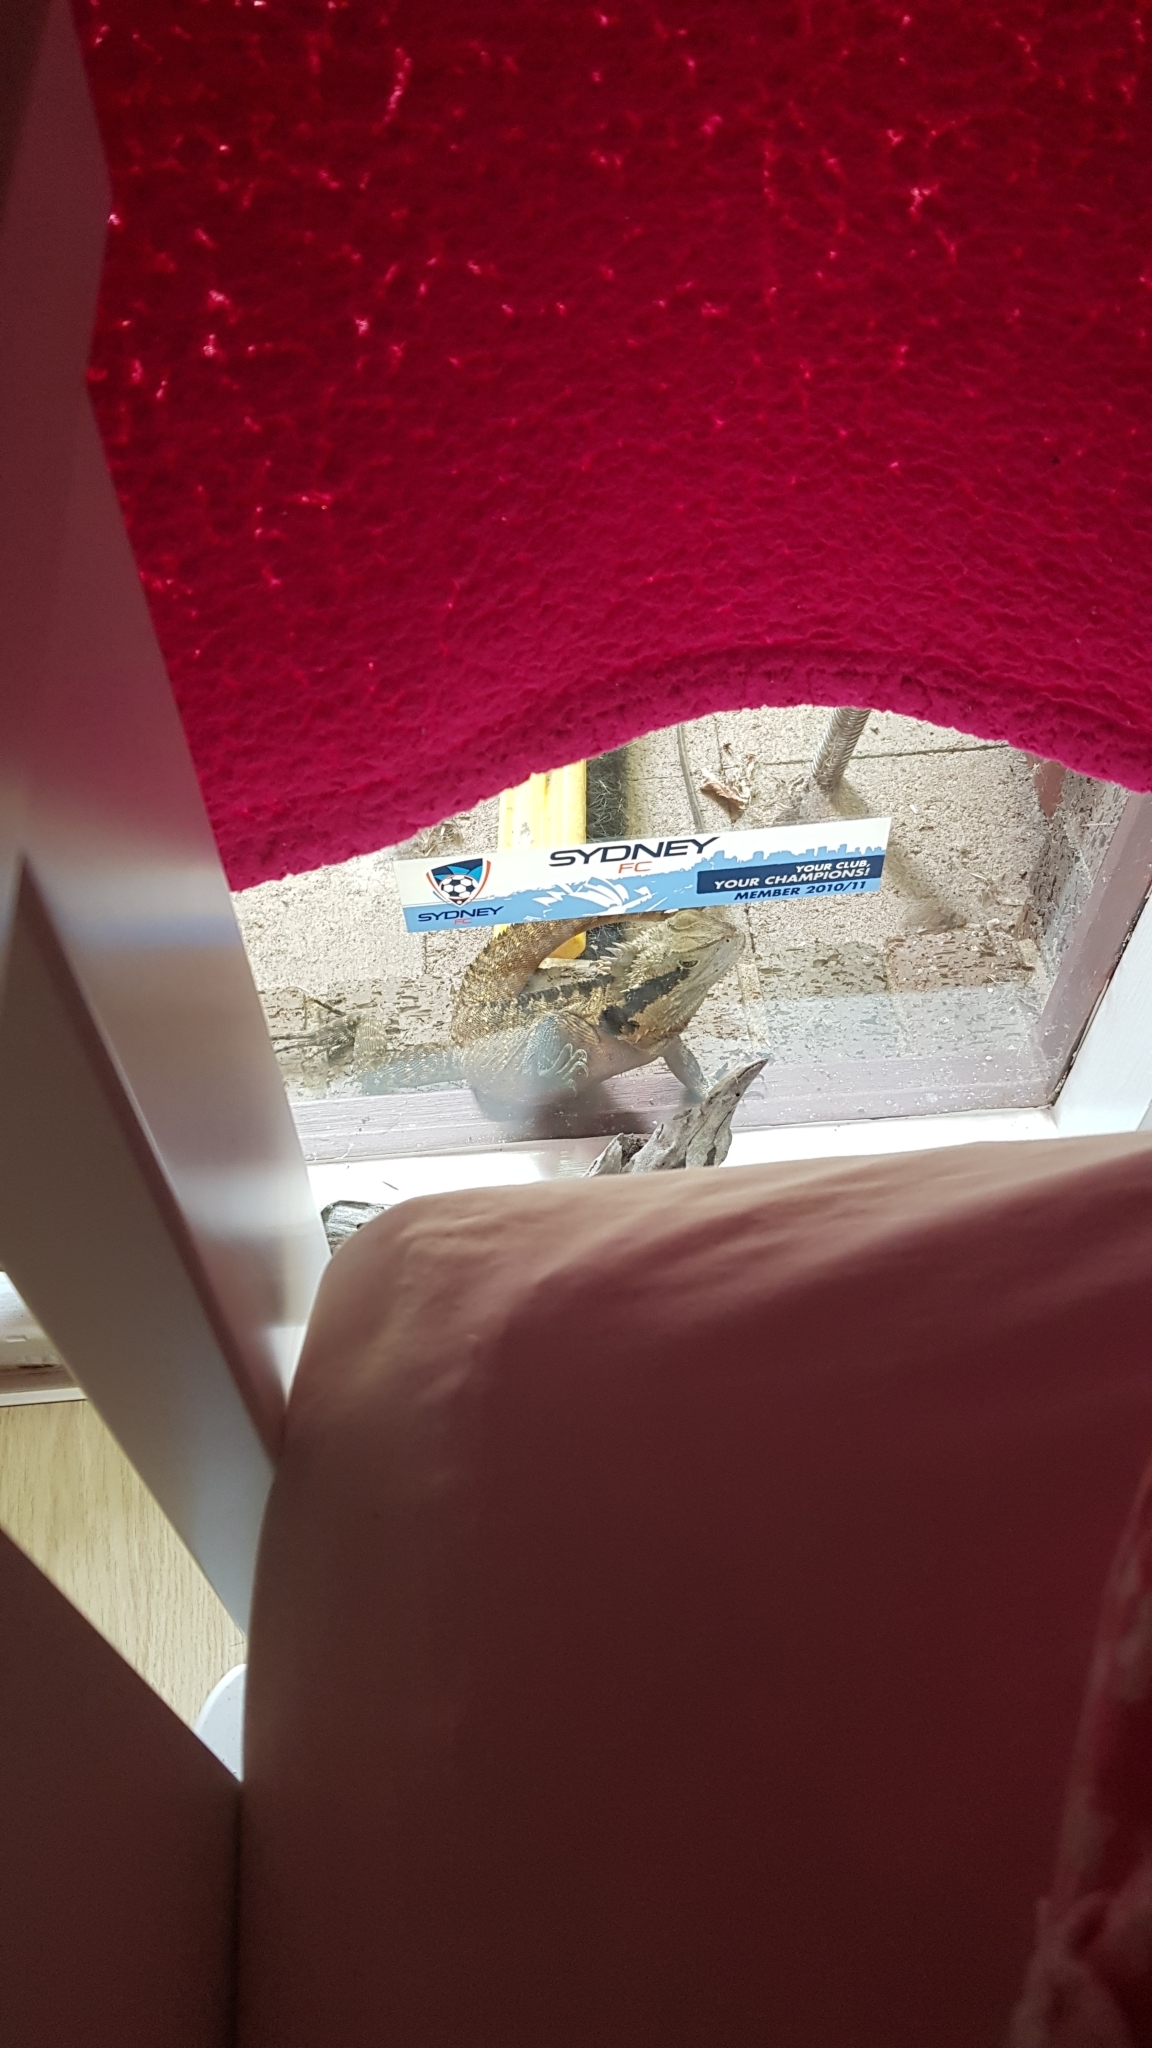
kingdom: Animalia
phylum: Chordata
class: Squamata
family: Agamidae
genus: Intellagama
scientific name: Intellagama lesueurii
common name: Eastern water dragon
